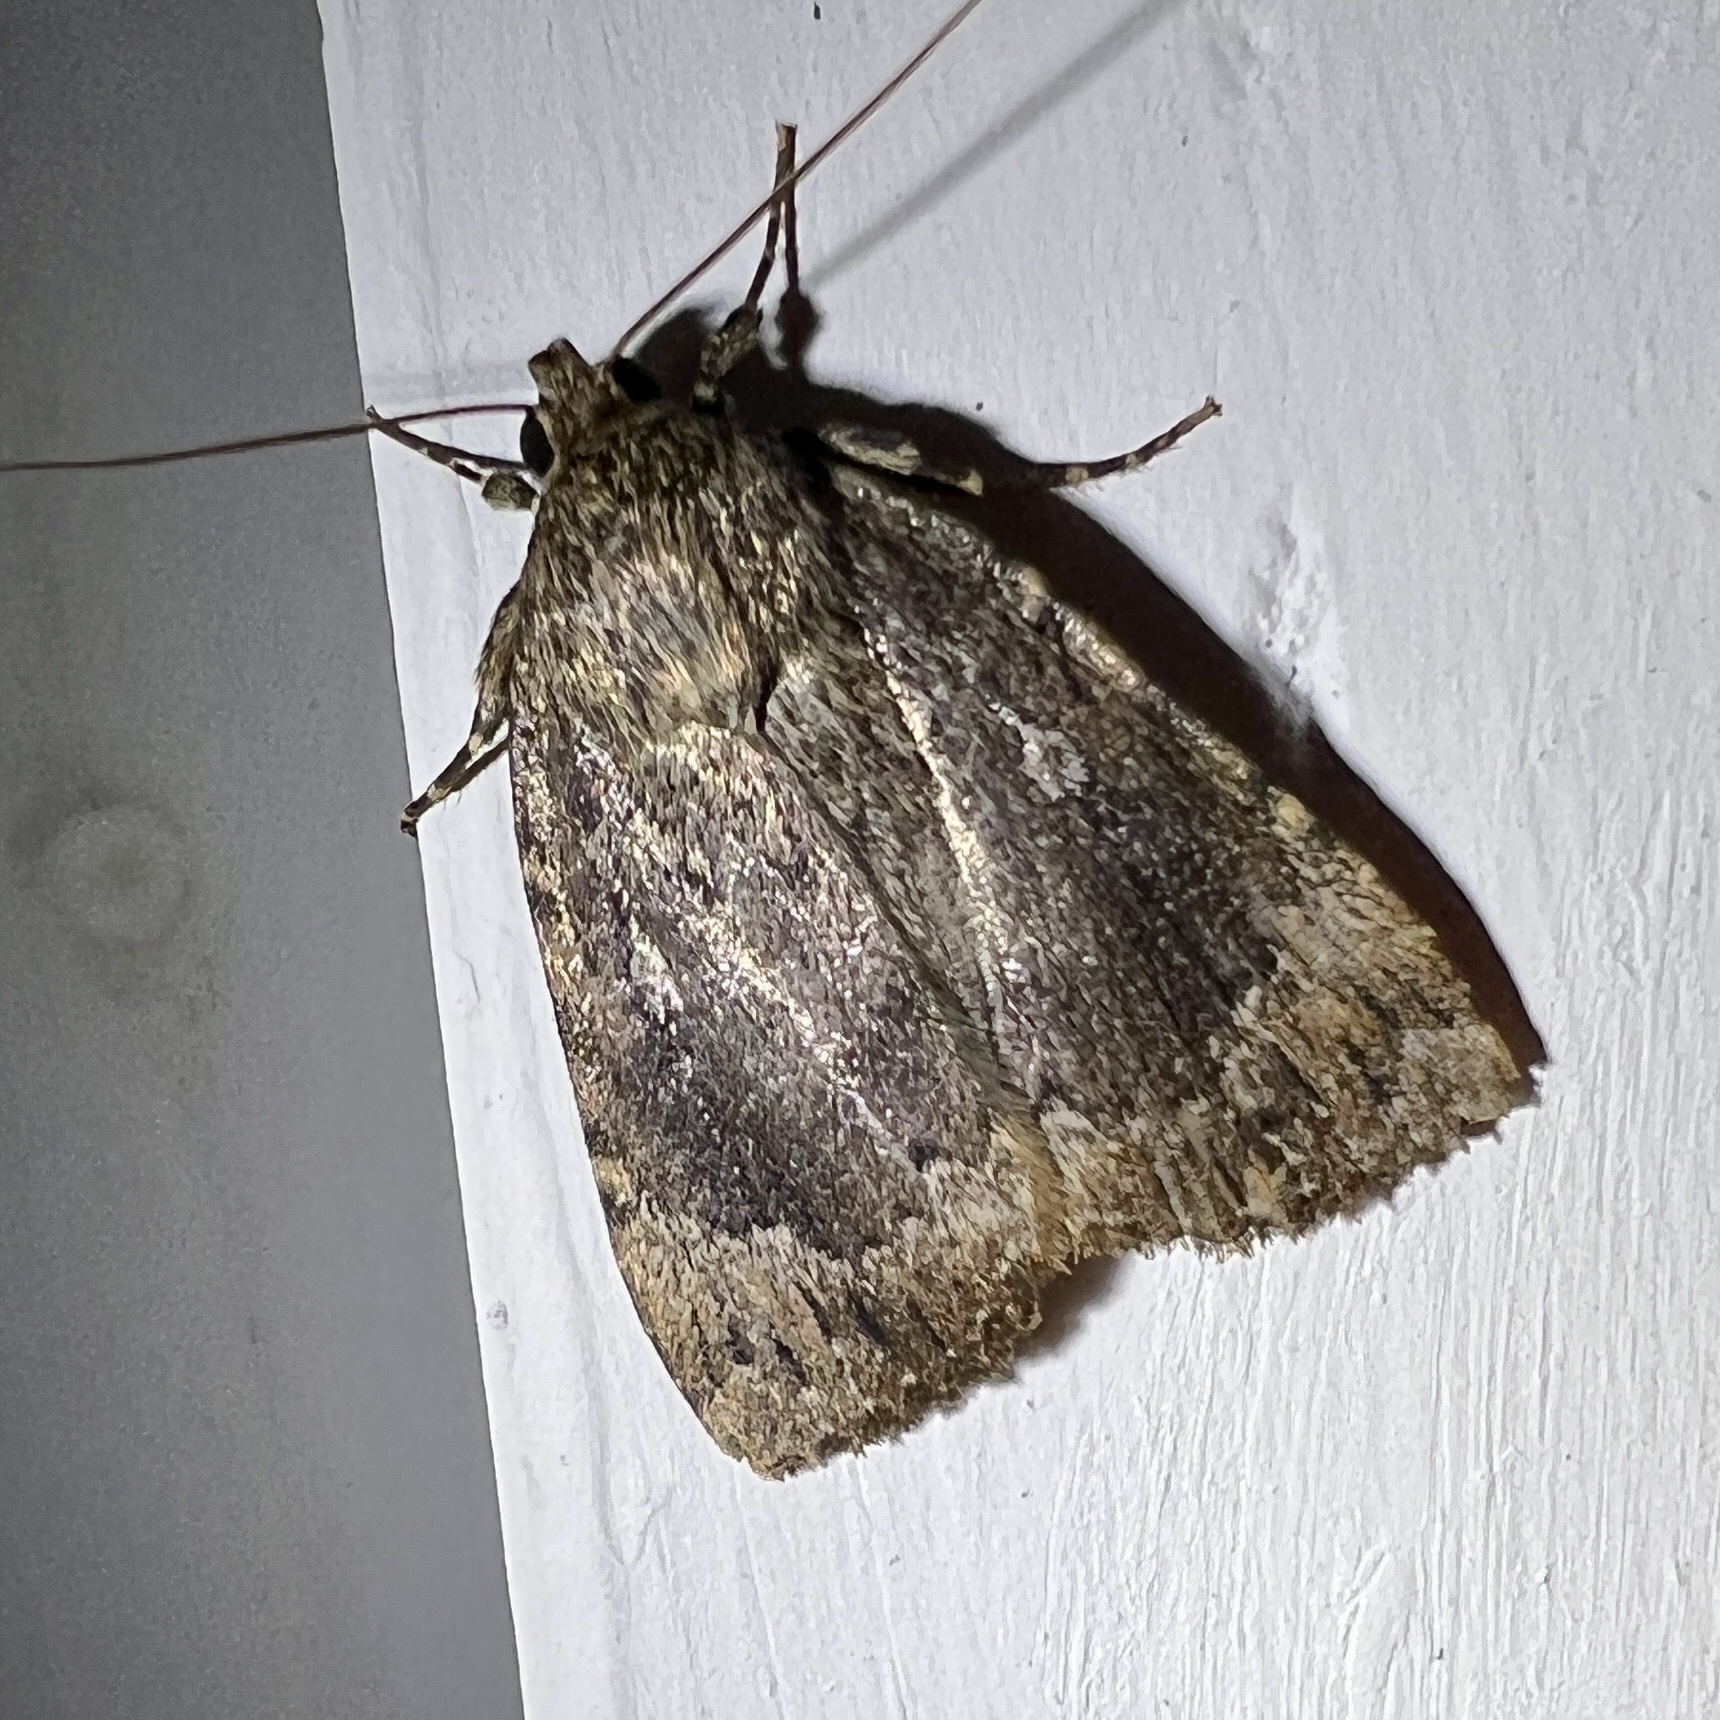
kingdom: Animalia
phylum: Arthropoda
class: Insecta
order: Lepidoptera
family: Noctuidae
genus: Amphipyra
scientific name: Amphipyra pyramidoides
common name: American copper underwing
